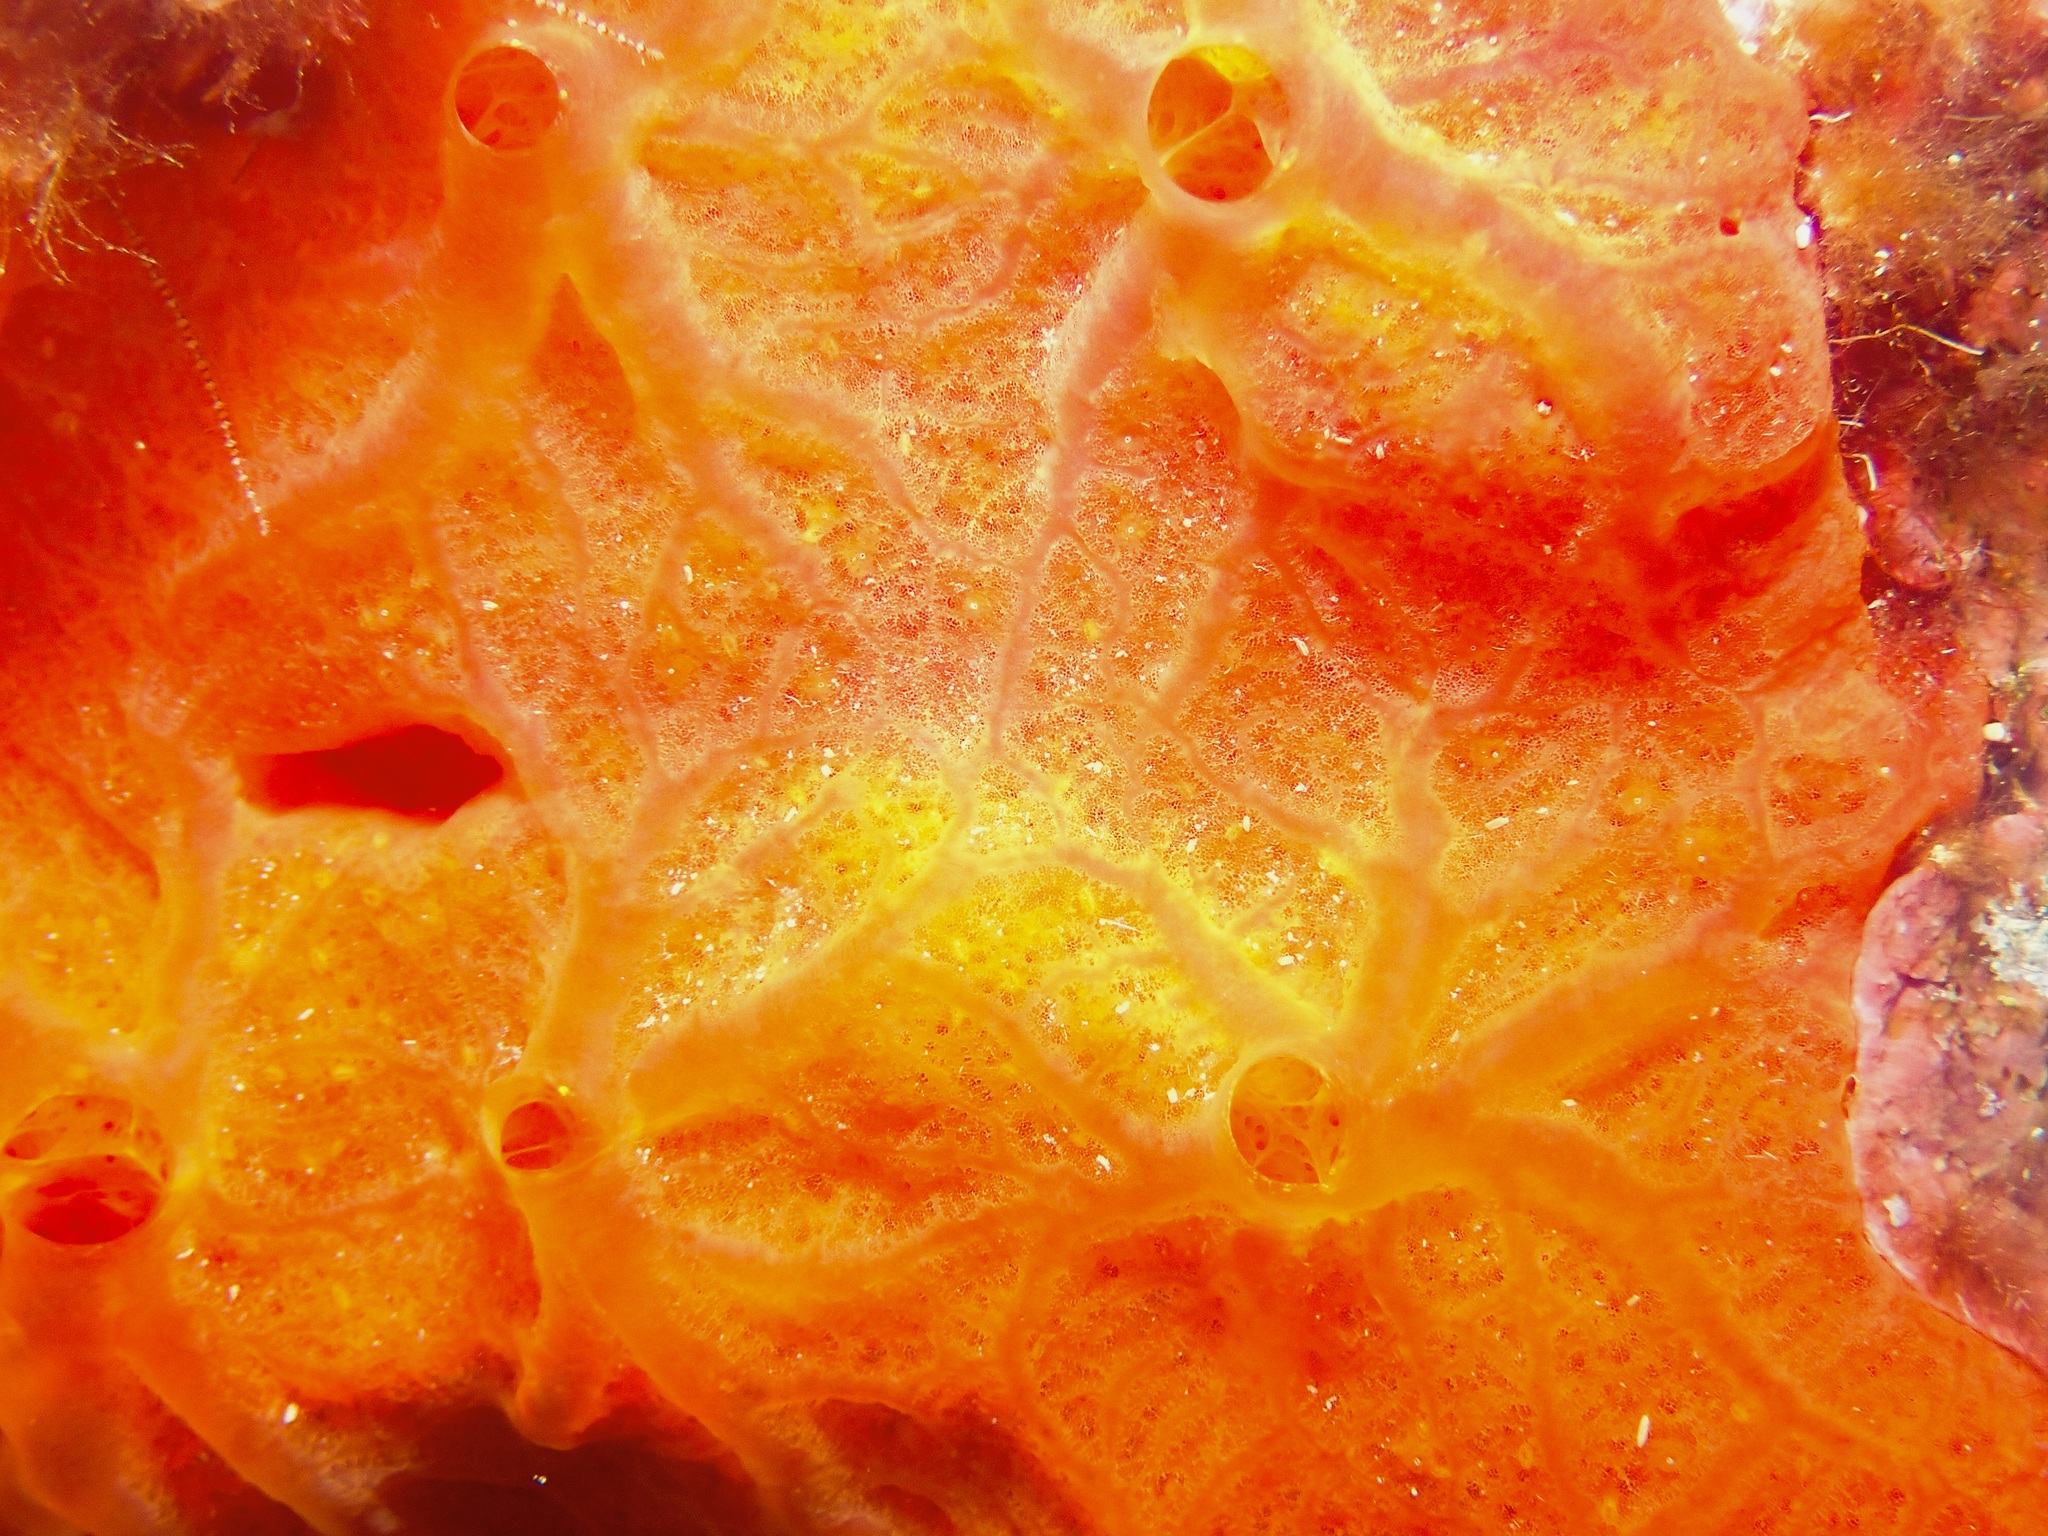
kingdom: Animalia
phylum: Porifera
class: Demospongiae
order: Poecilosclerida
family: Crambeidae
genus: Crambe
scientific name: Crambe crambe
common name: Orange-red encrusting sponge
